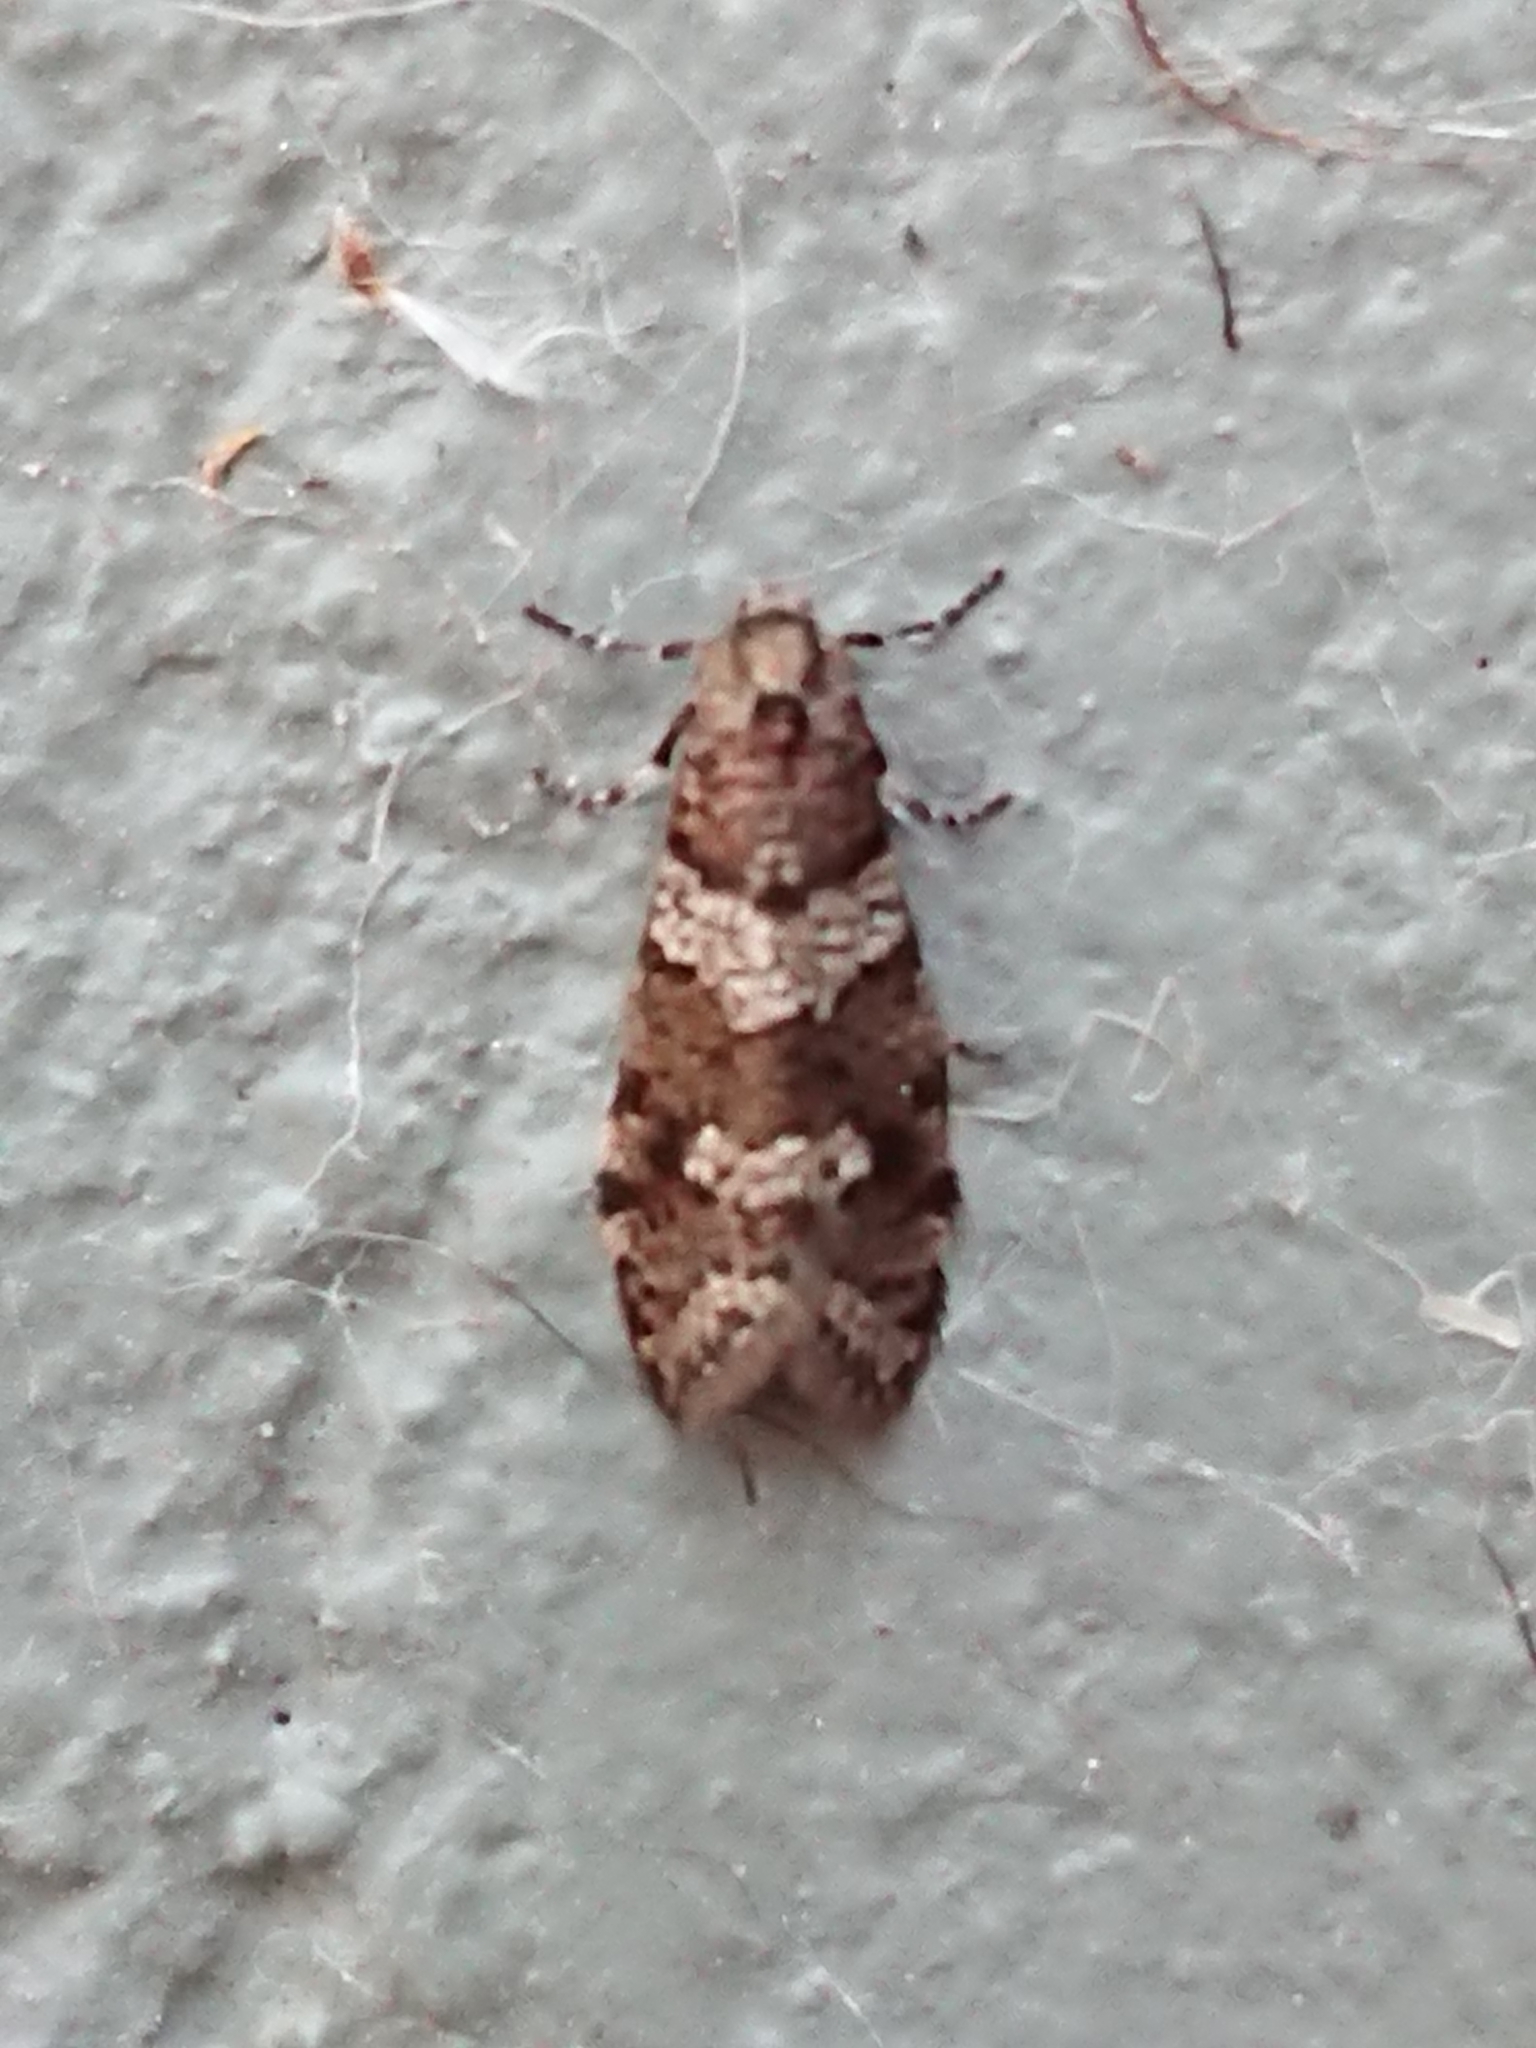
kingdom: Animalia
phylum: Arthropoda
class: Insecta
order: Lepidoptera
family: Psychidae
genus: Lepidoscia
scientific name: Lepidoscia heliochares
